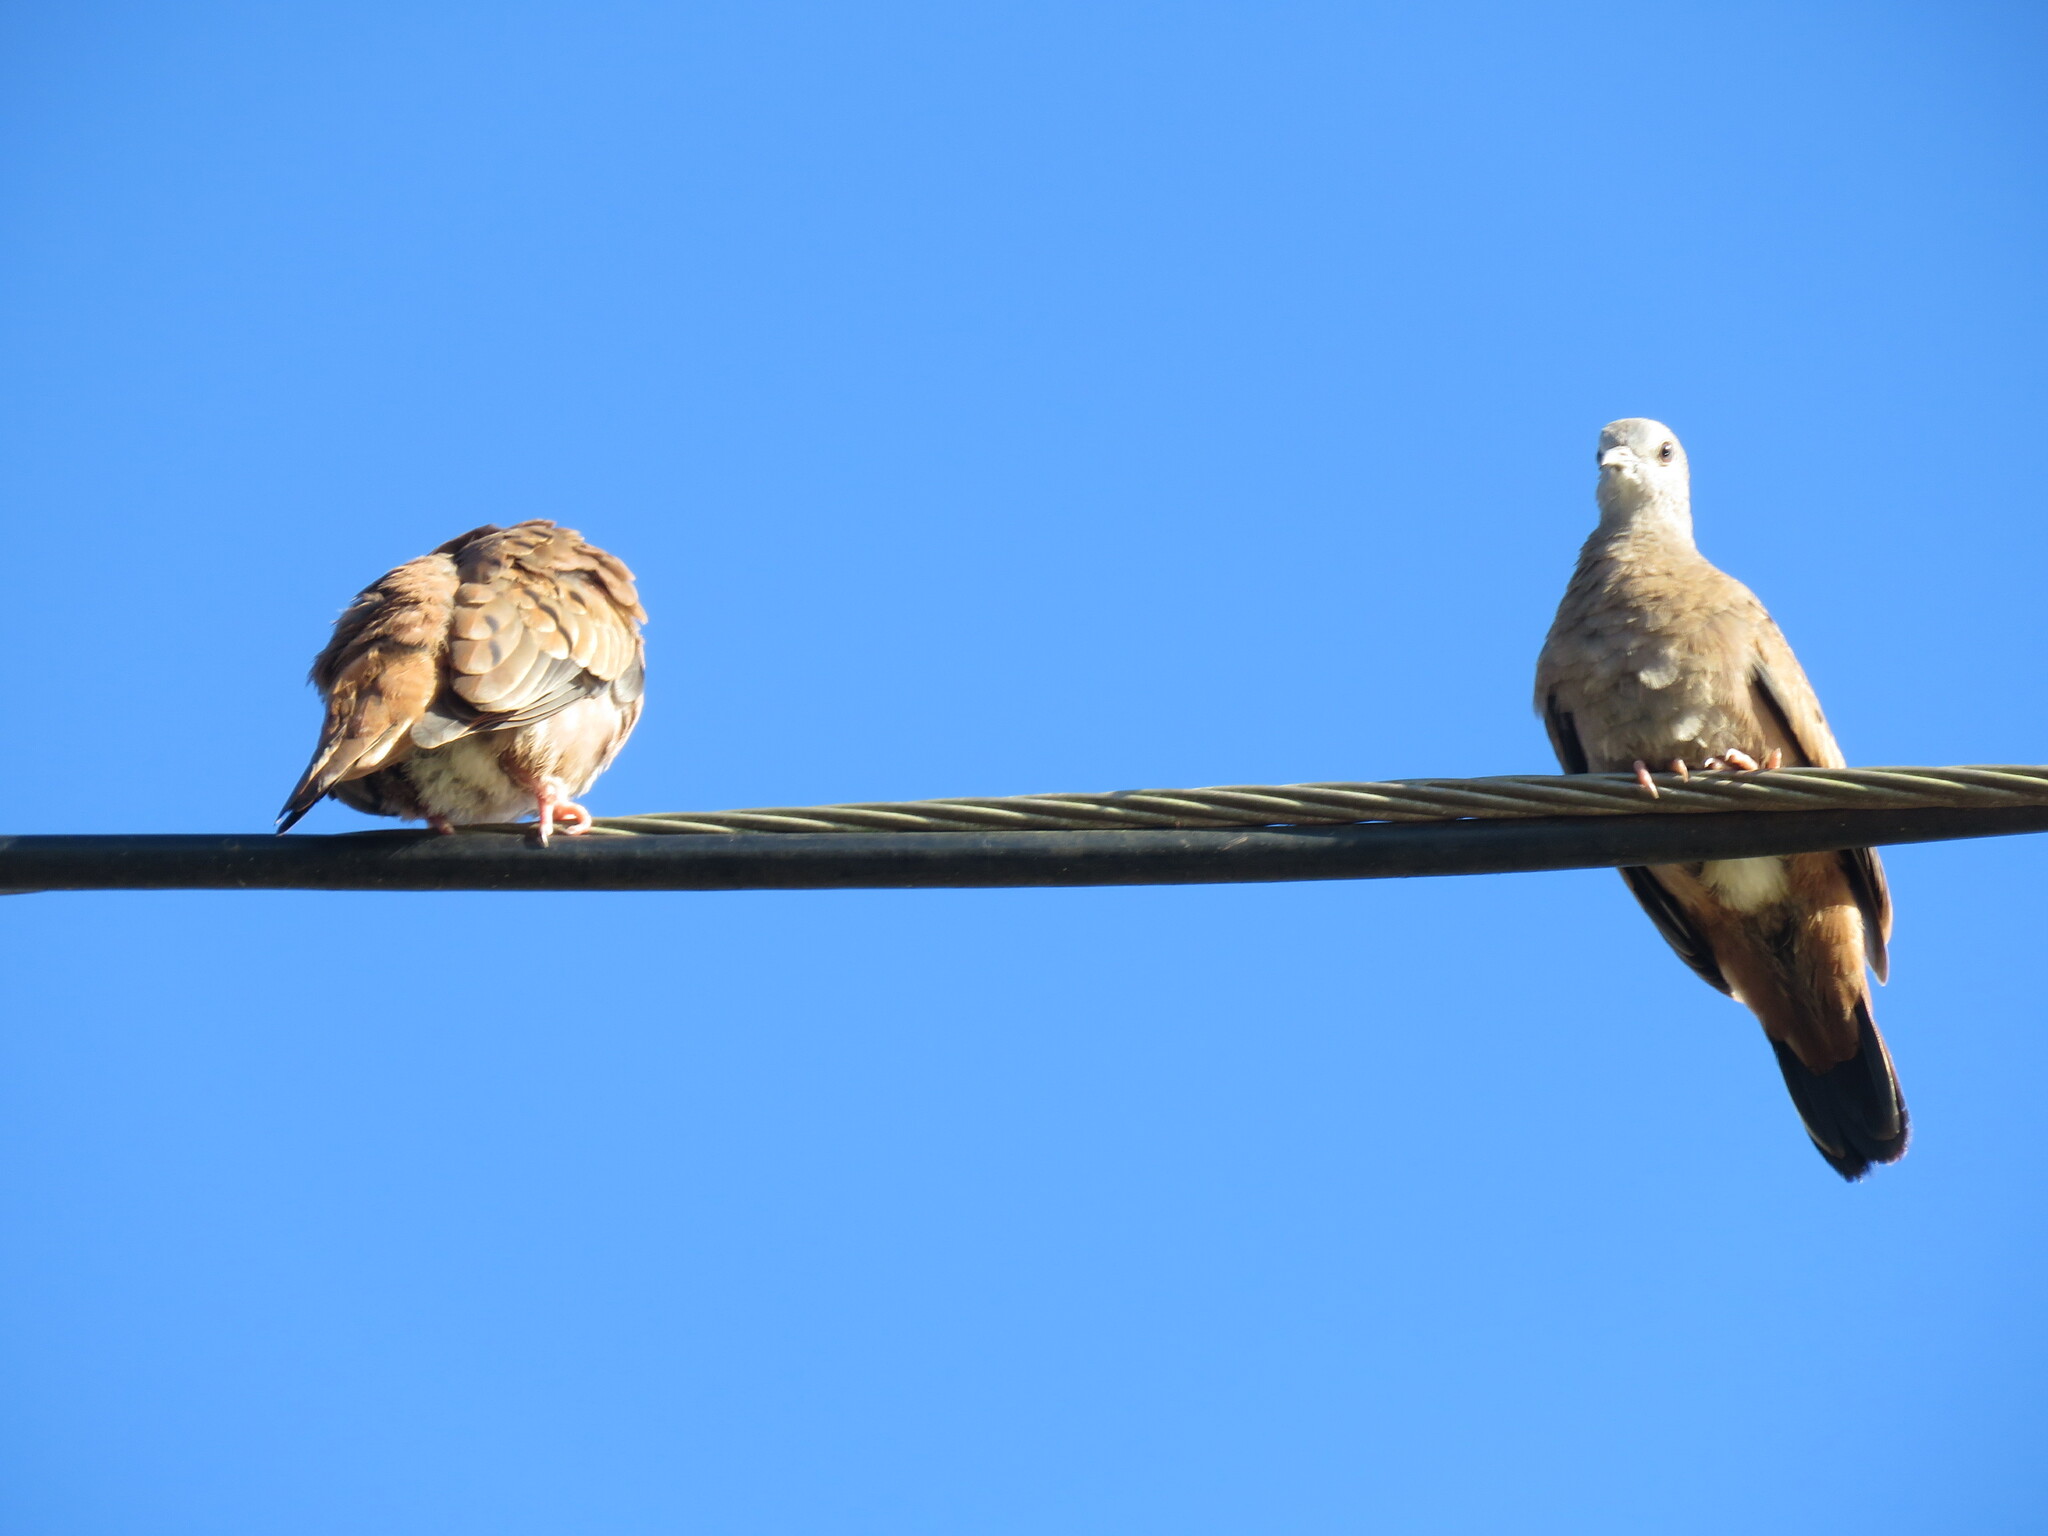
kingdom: Animalia
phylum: Chordata
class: Aves
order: Columbiformes
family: Columbidae
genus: Columbina
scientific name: Columbina talpacoti
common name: Ruddy ground dove
